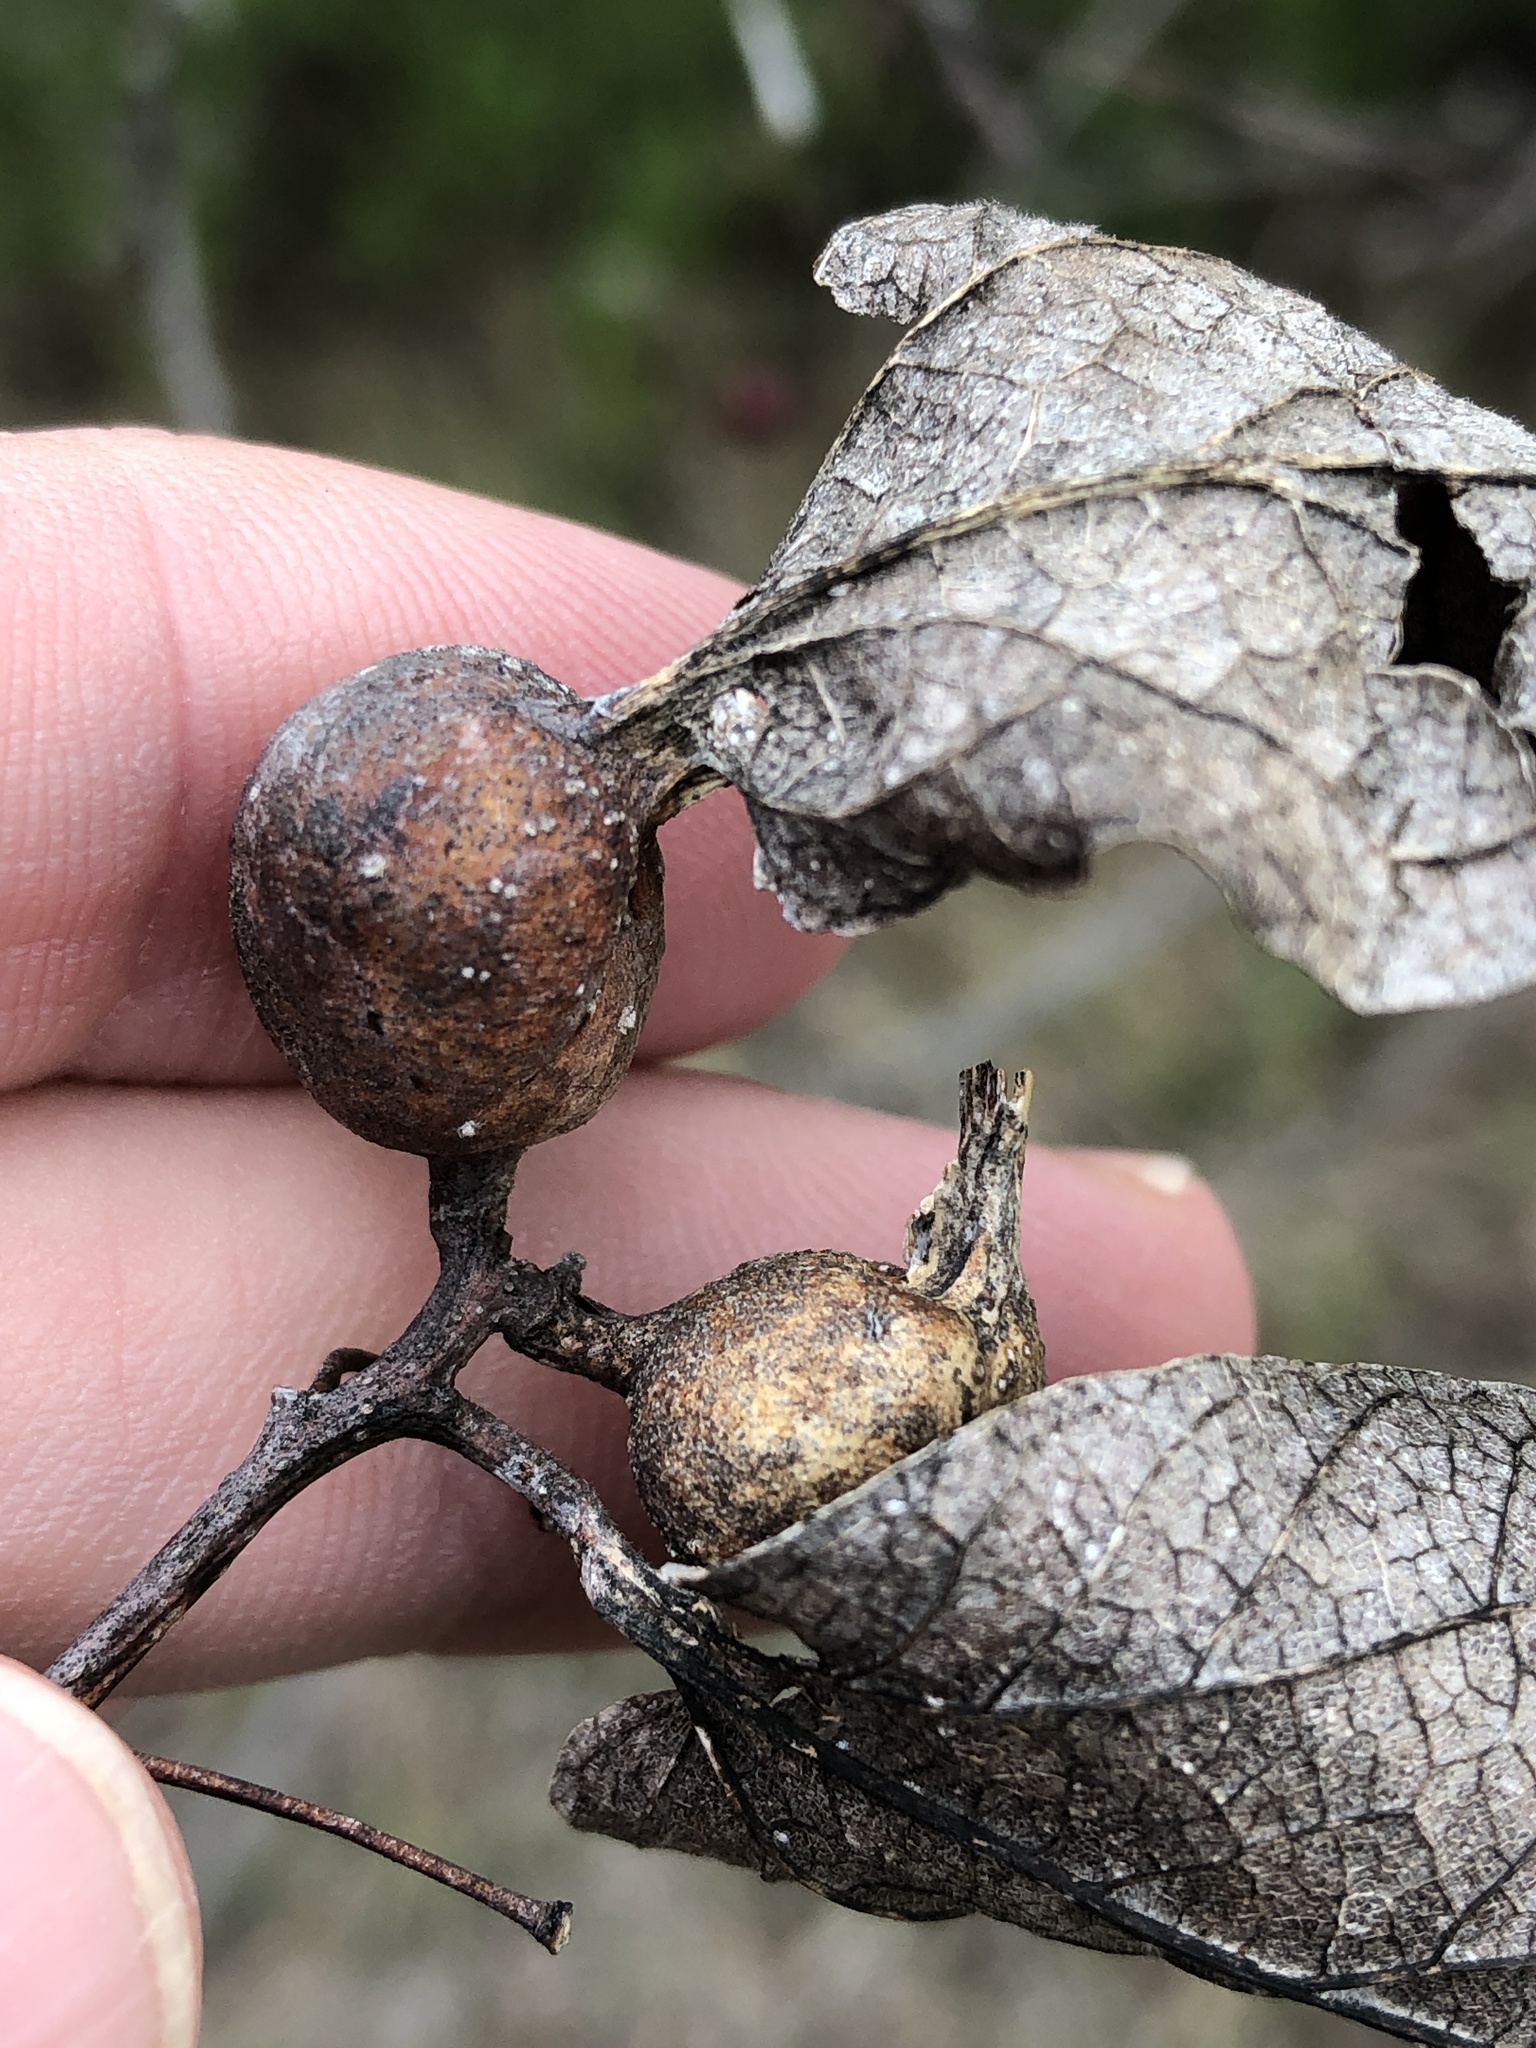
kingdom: Animalia
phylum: Arthropoda
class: Insecta
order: Hemiptera
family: Aphalaridae
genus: Pachypsylla
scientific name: Pachypsylla venusta
